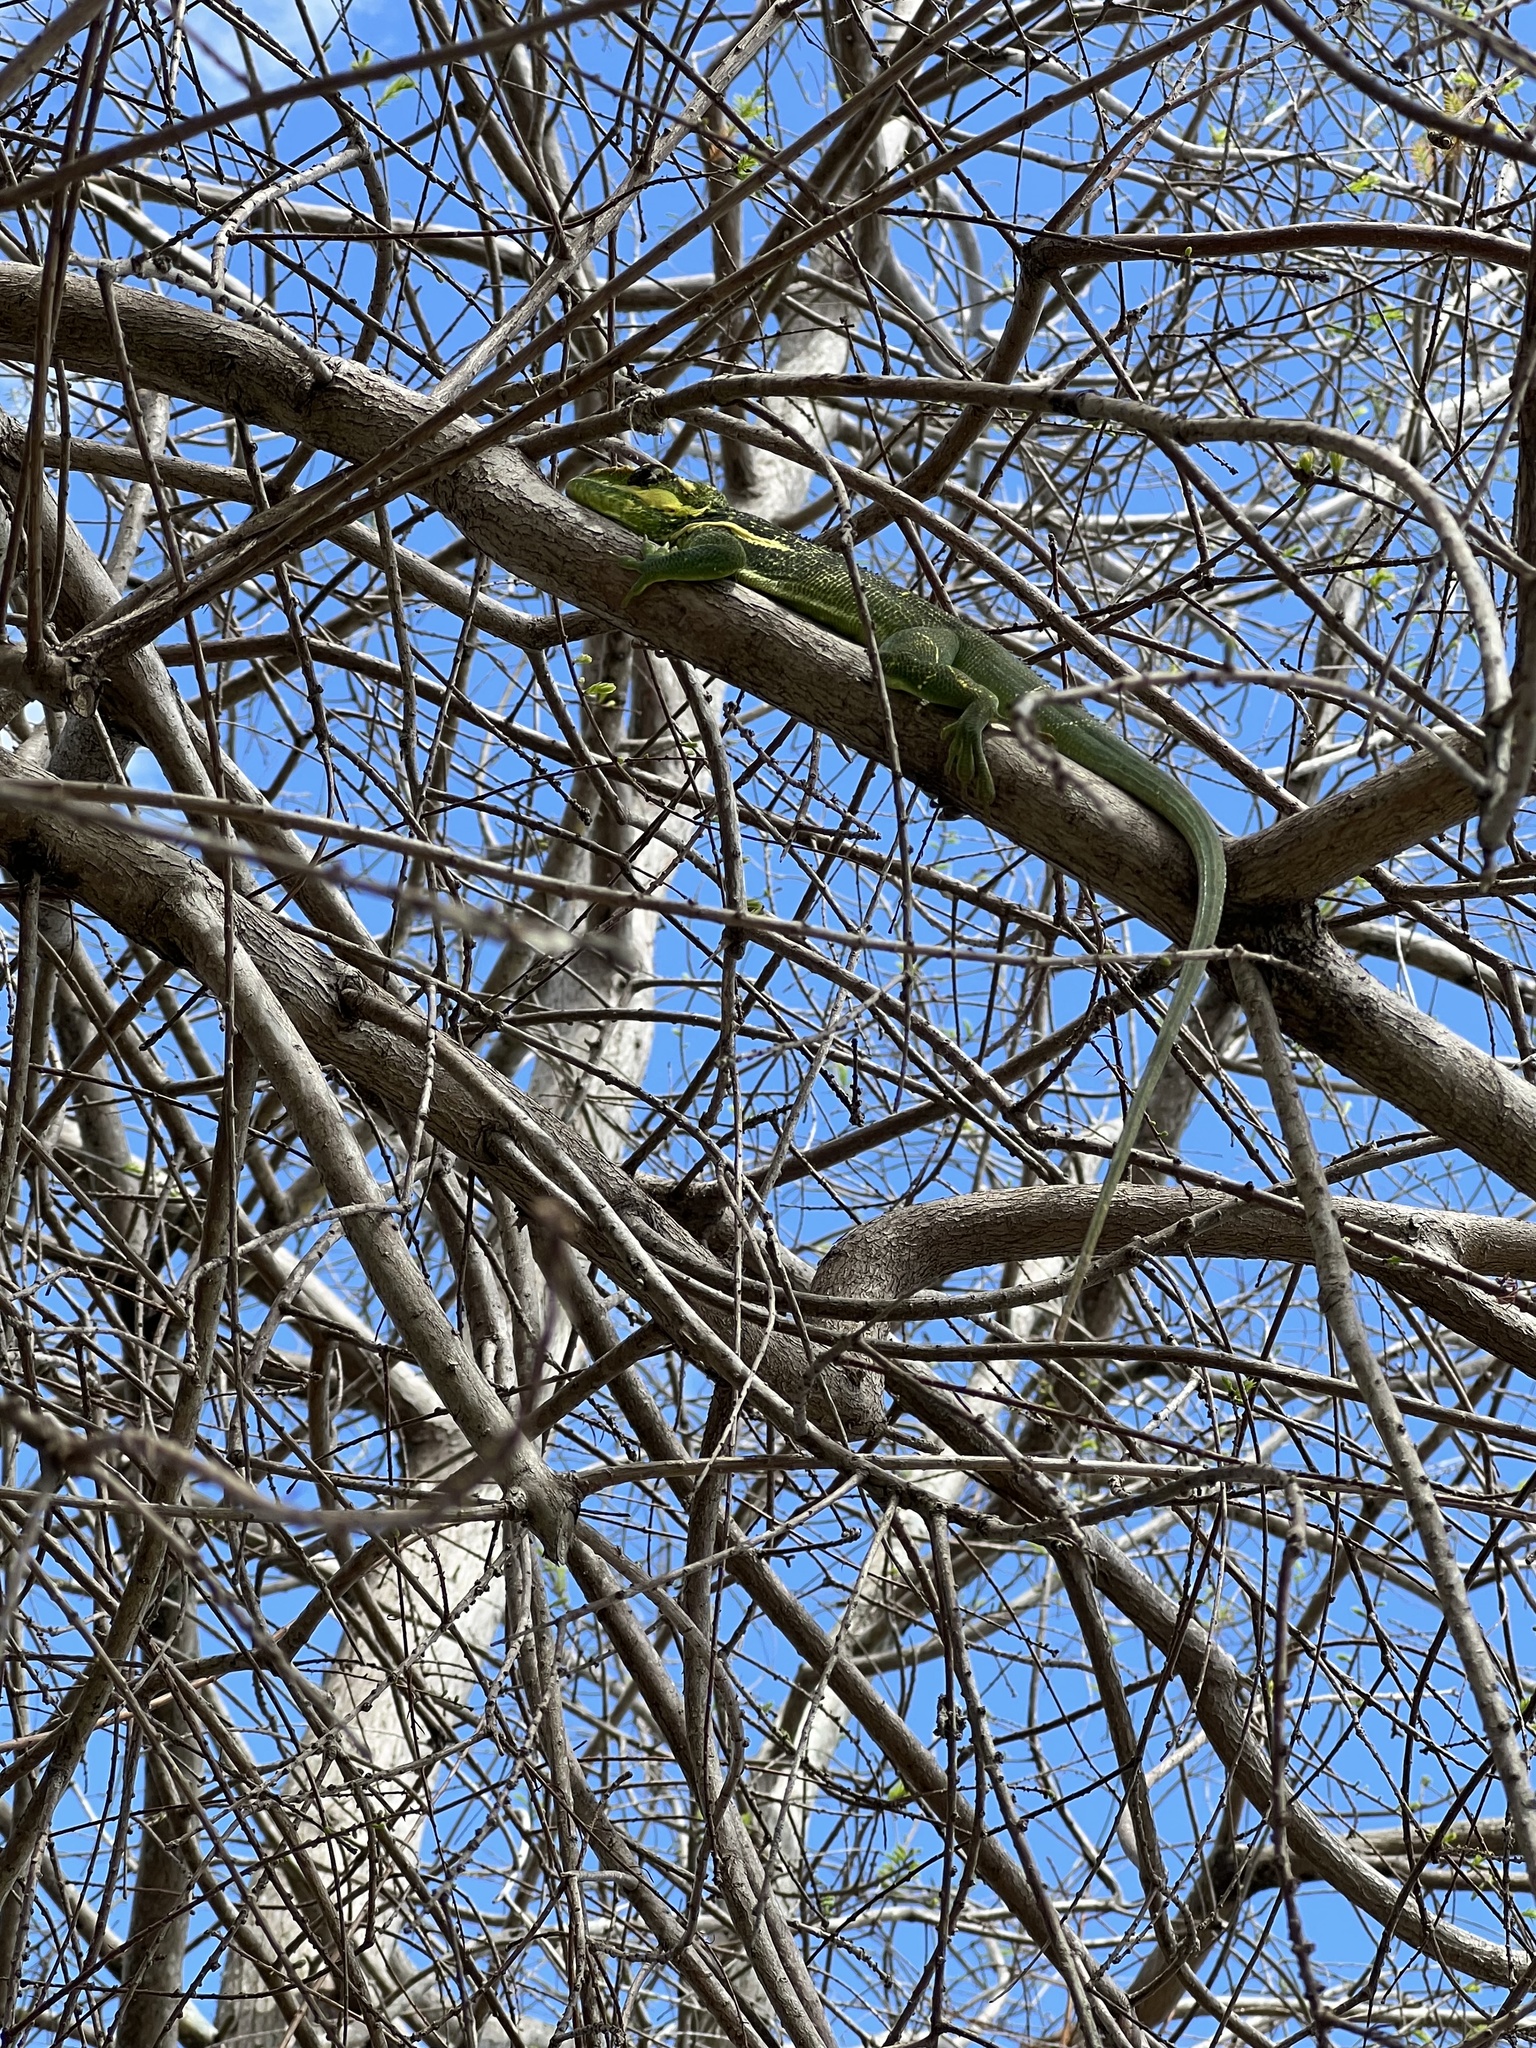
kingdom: Animalia
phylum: Chordata
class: Squamata
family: Dactyloidae
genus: Anolis
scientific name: Anolis equestris
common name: Knight anole
